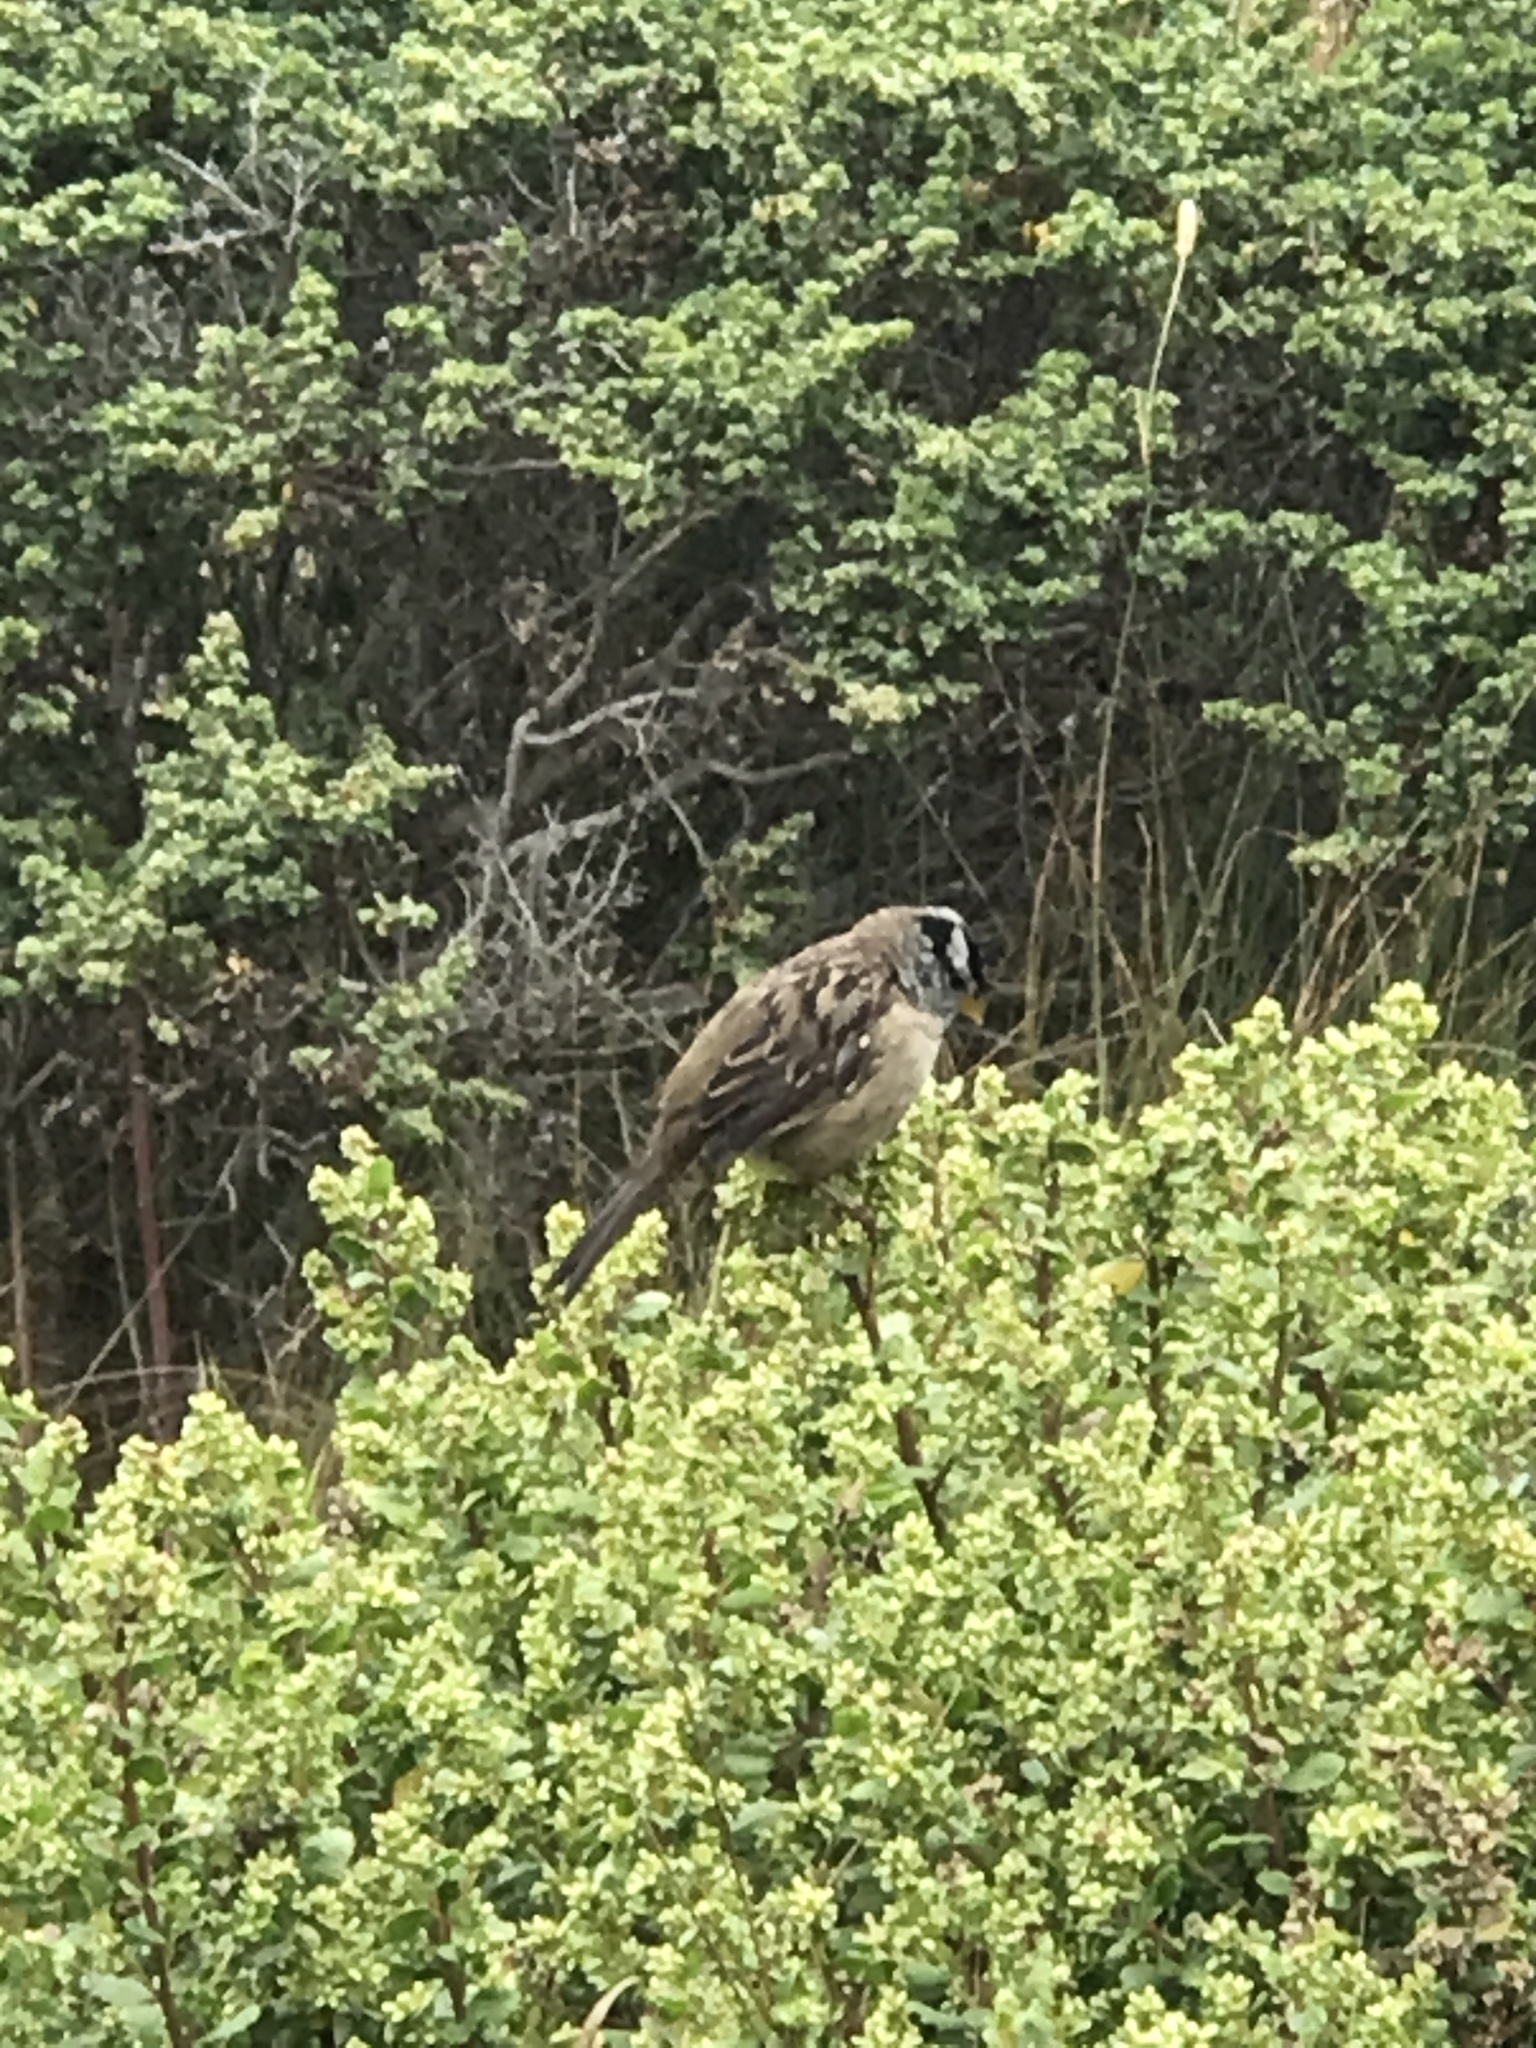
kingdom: Animalia
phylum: Chordata
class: Aves
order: Passeriformes
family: Passerellidae
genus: Zonotrichia
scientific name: Zonotrichia leucophrys
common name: White-crowned sparrow
